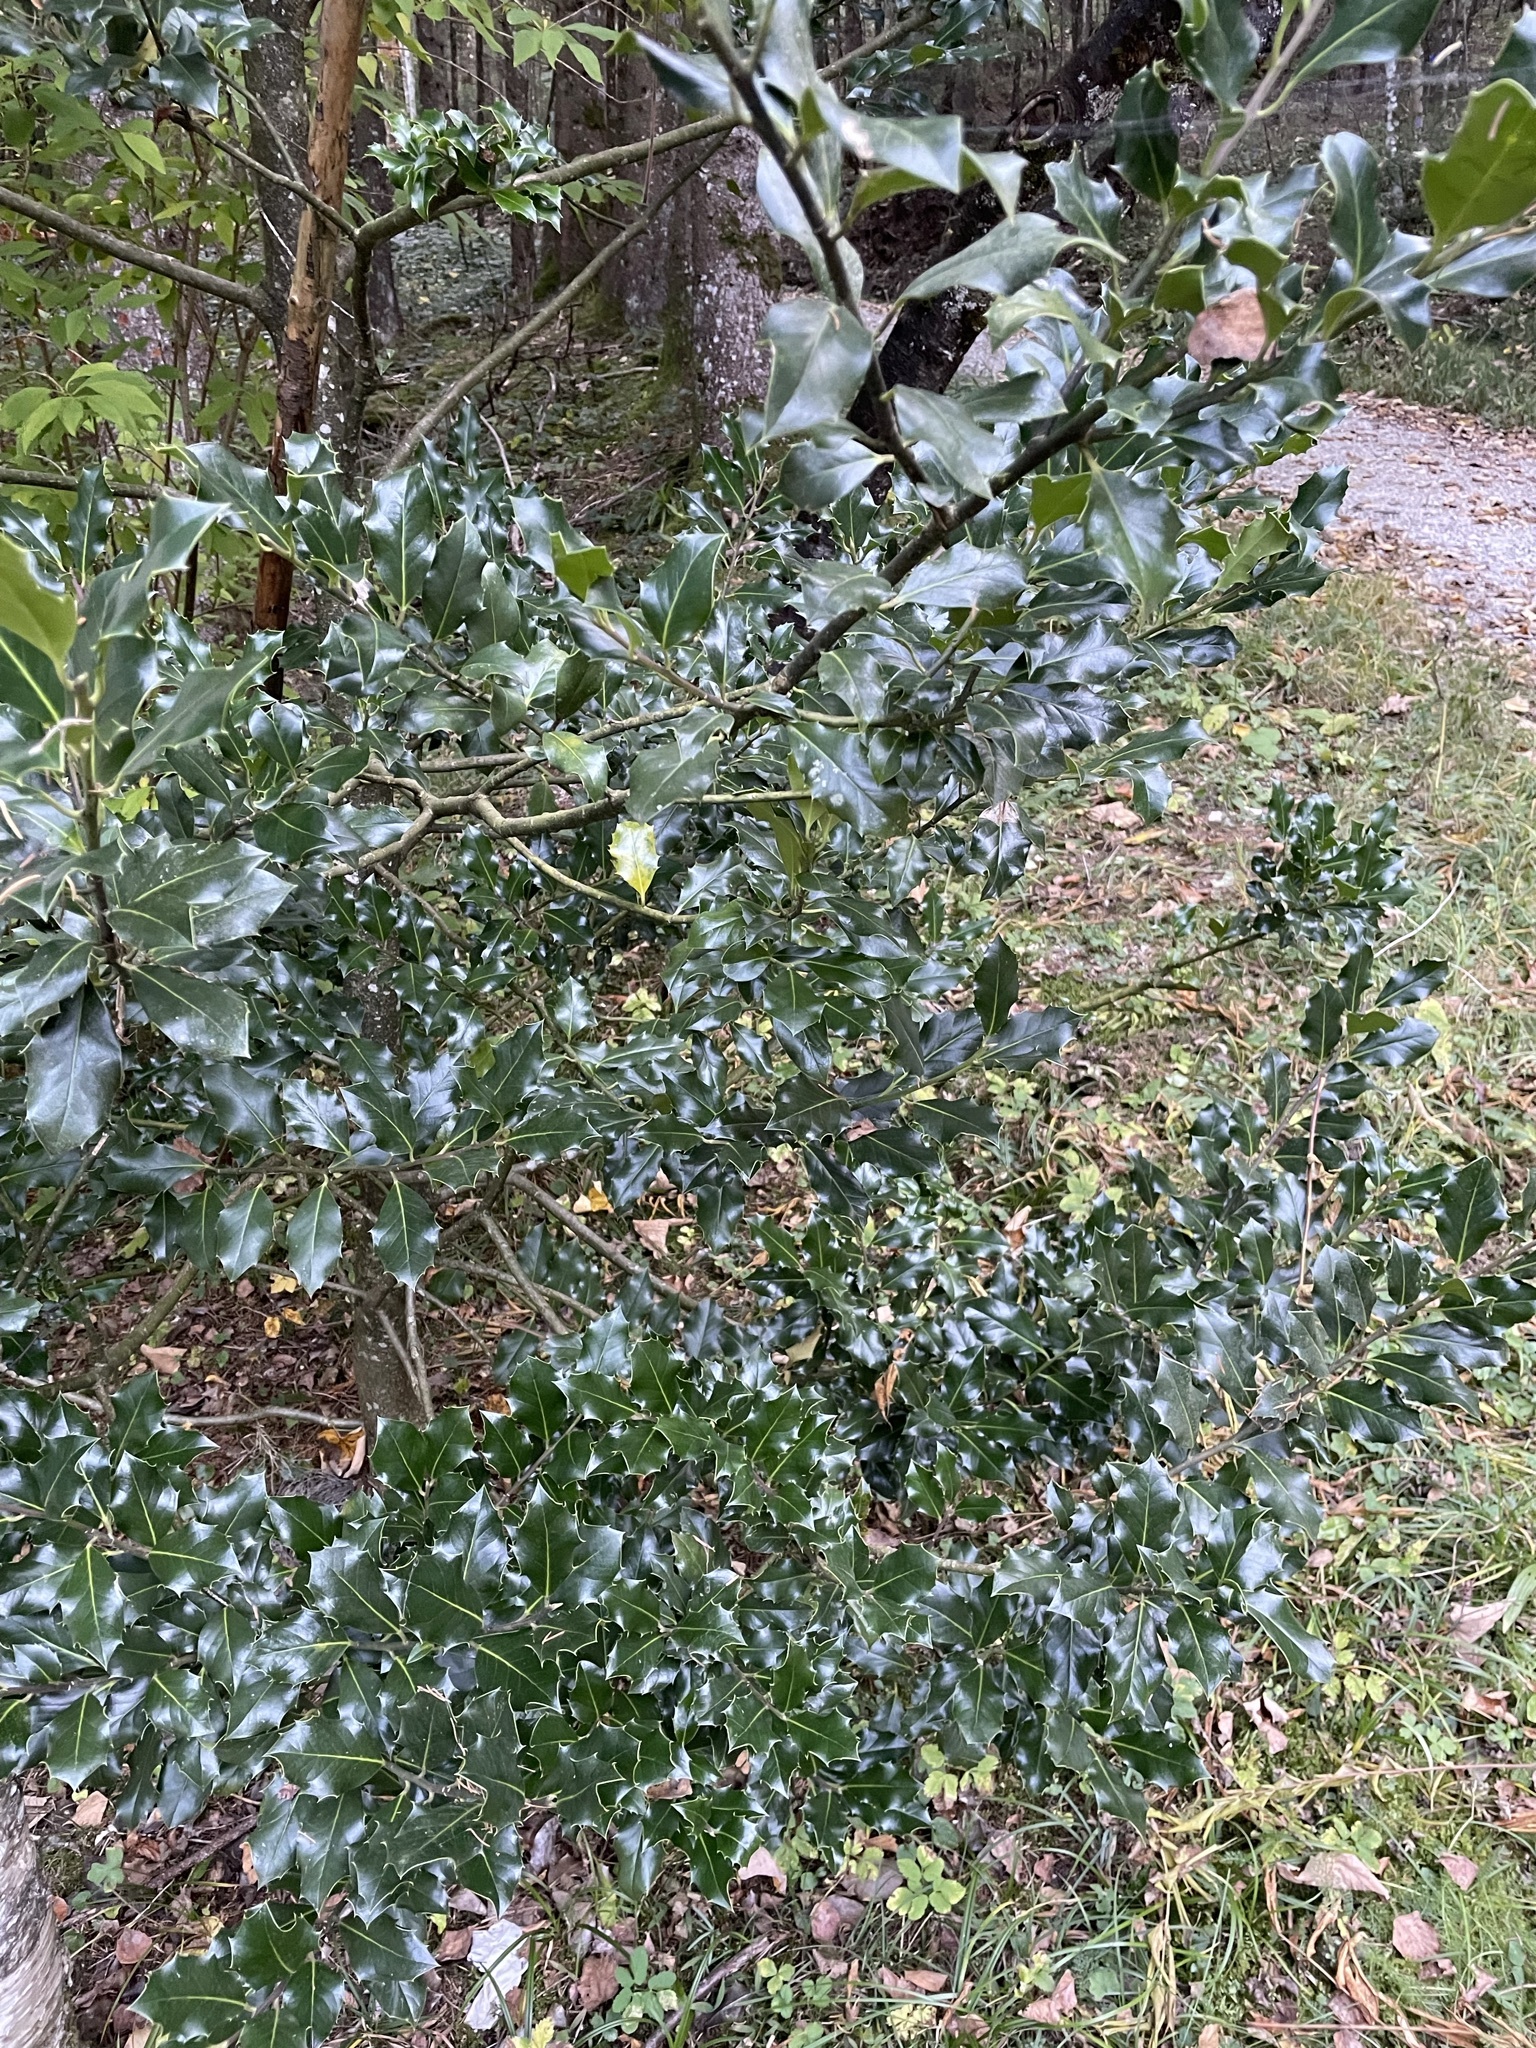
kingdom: Plantae
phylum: Tracheophyta
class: Magnoliopsida
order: Aquifoliales
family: Aquifoliaceae
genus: Ilex
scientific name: Ilex aquifolium
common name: English holly
